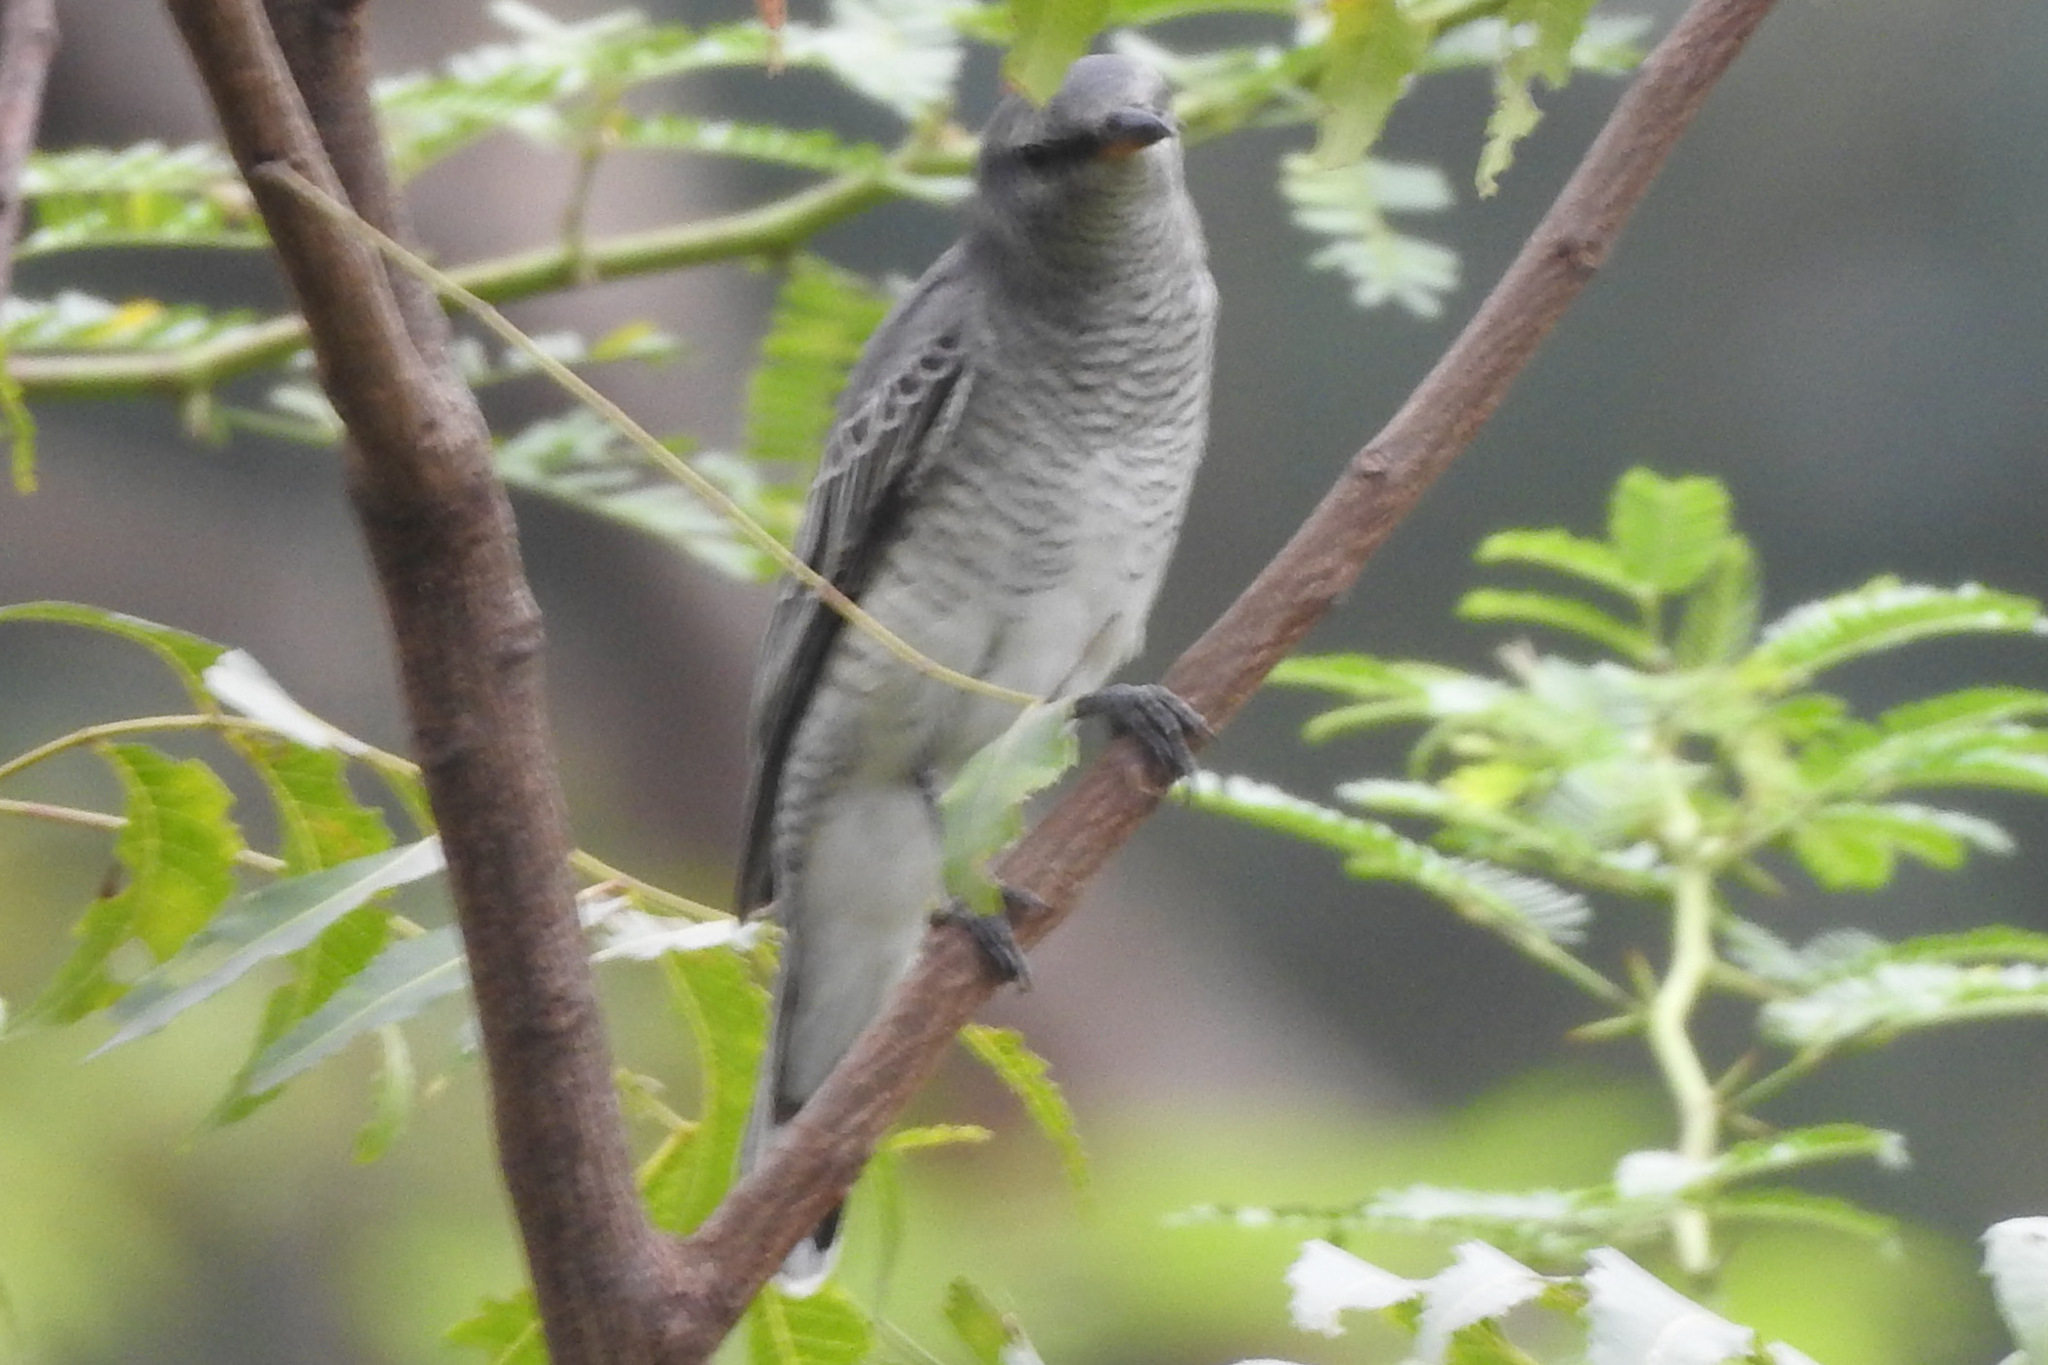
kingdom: Animalia
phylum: Chordata
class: Aves
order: Passeriformes
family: Campephagidae
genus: Coracina
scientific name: Coracina melanoptera
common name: Black-headed cuckooshrike
